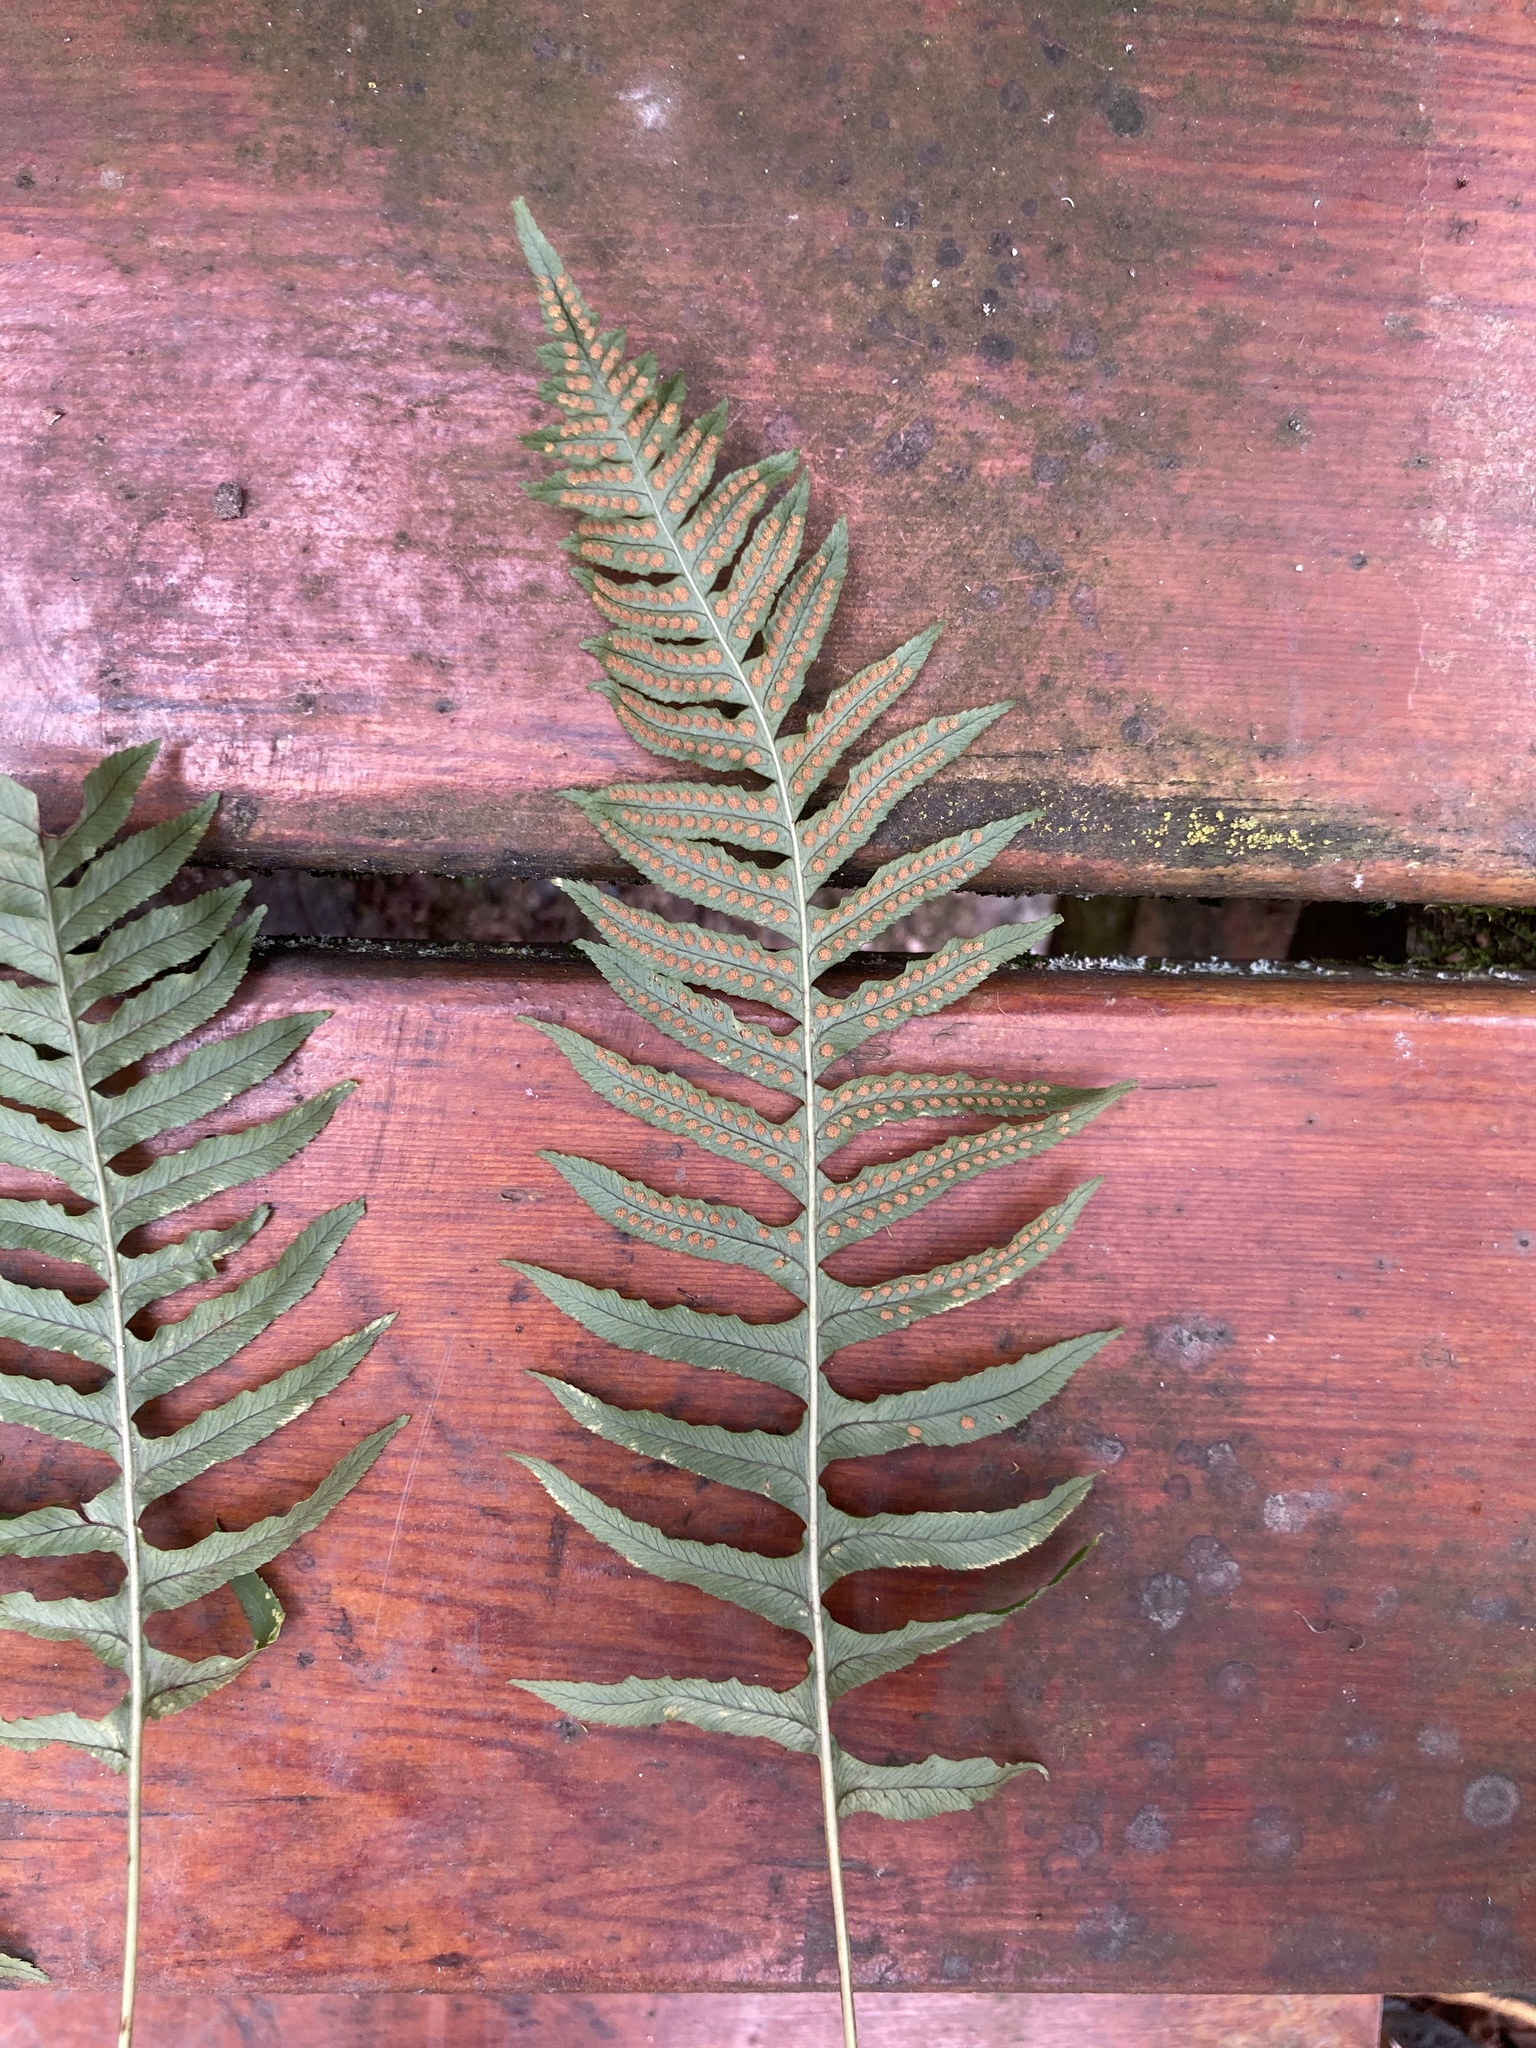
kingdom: Plantae
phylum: Tracheophyta
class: Polypodiopsida
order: Polypodiales
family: Polypodiaceae
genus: Polypodium
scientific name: Polypodium glycyrrhiza
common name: Licorice fern
